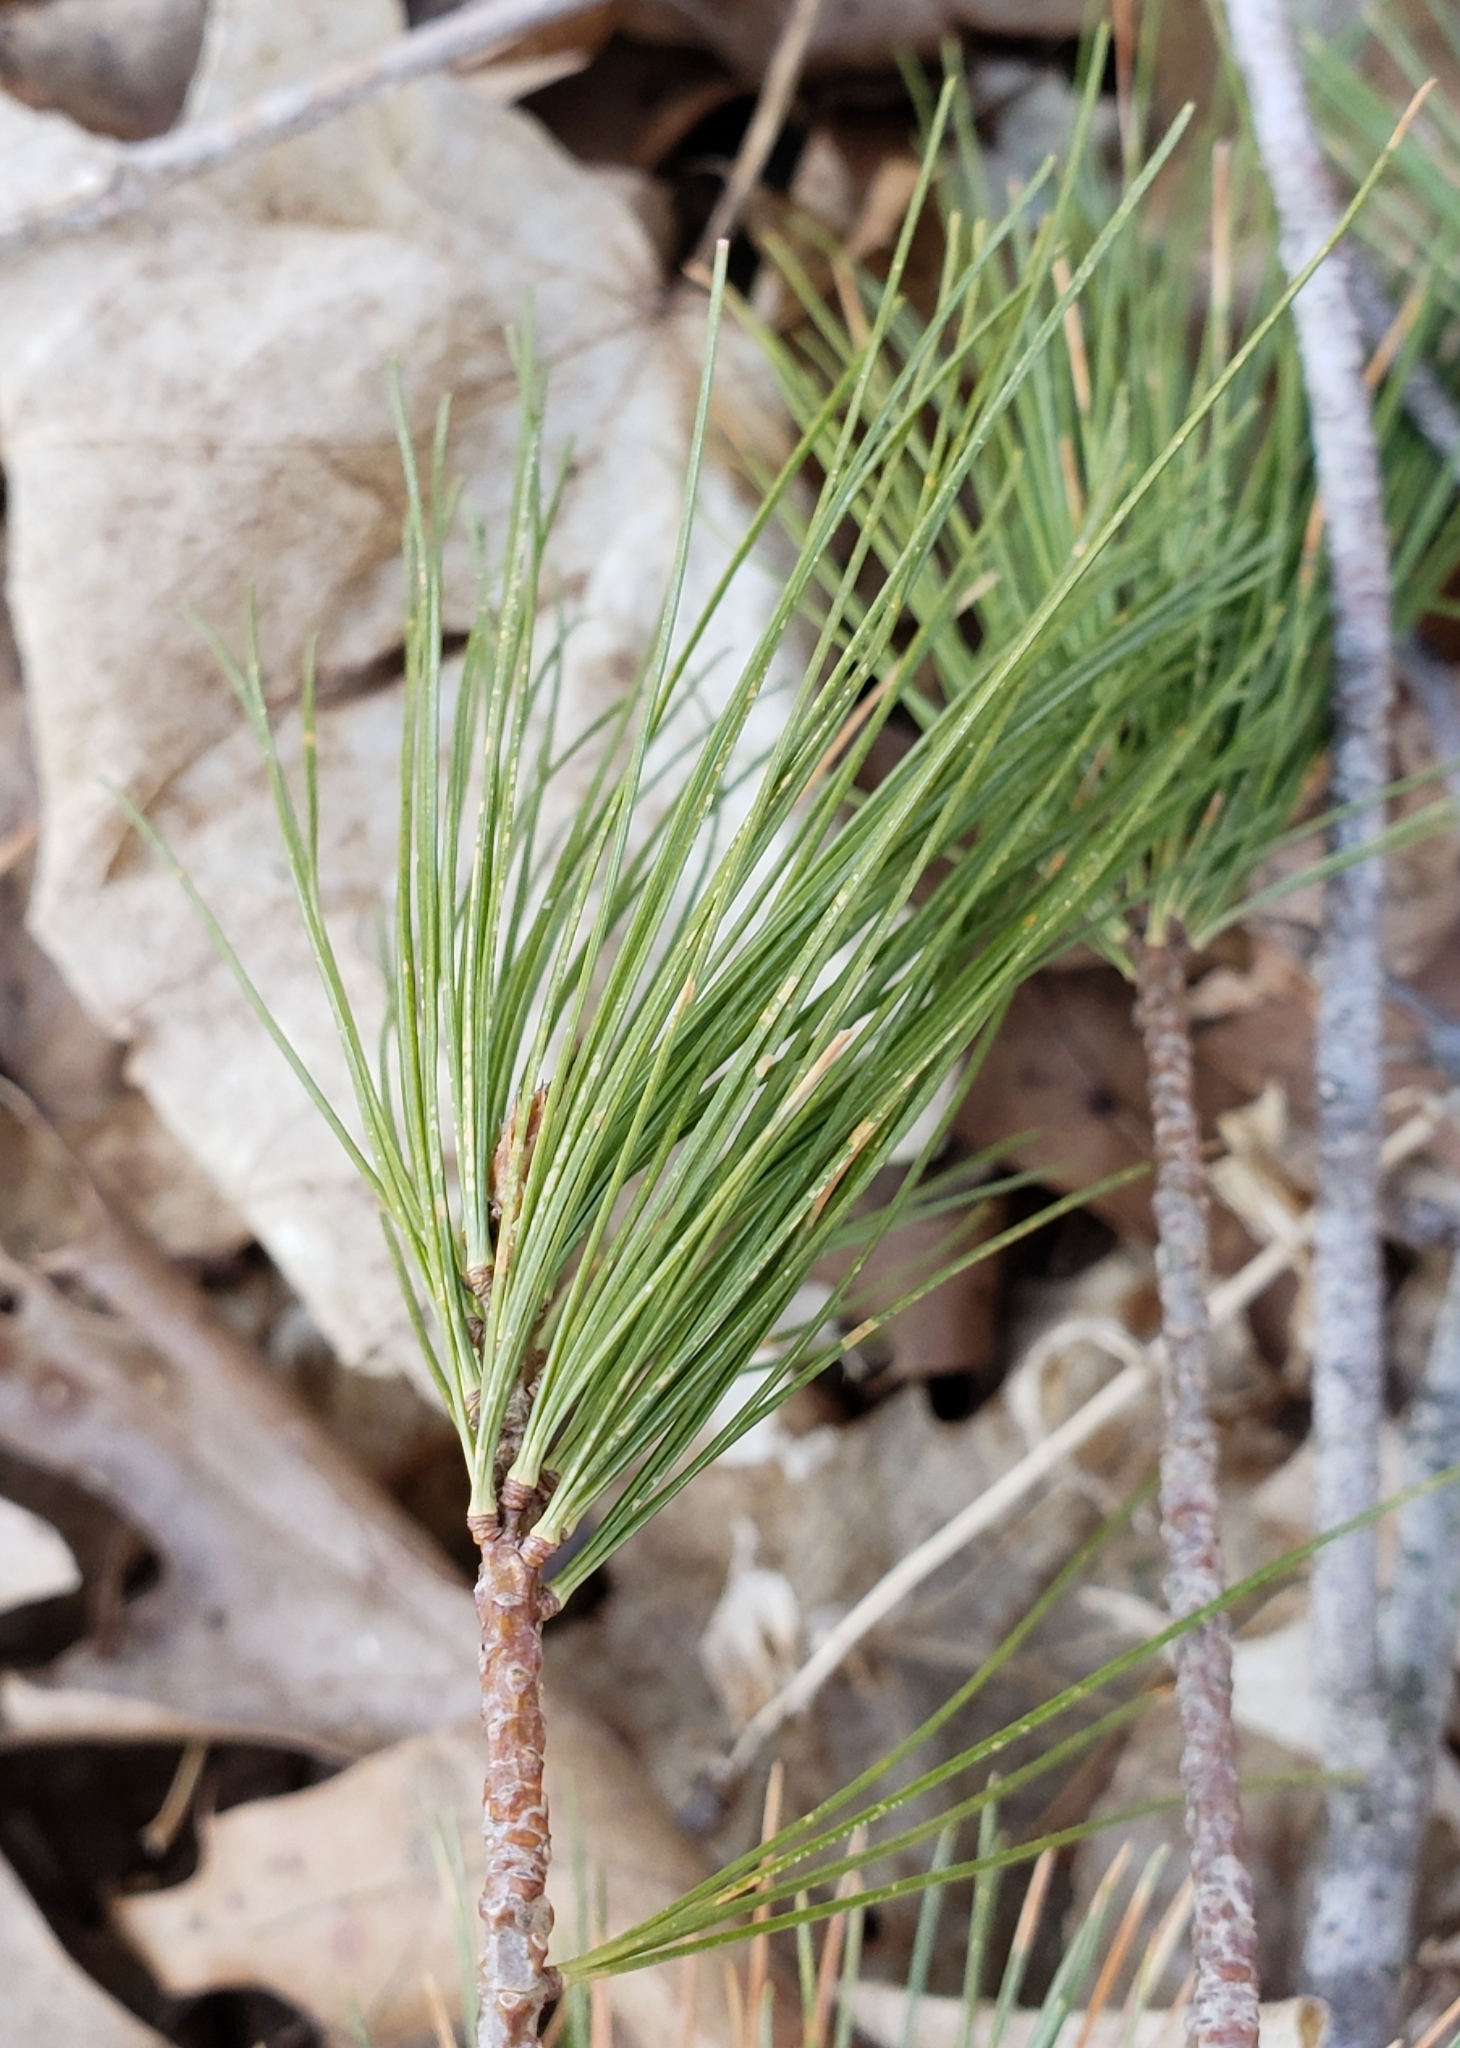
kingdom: Plantae
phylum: Tracheophyta
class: Pinopsida
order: Pinales
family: Pinaceae
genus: Pinus
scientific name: Pinus strobus
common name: Weymouth pine
